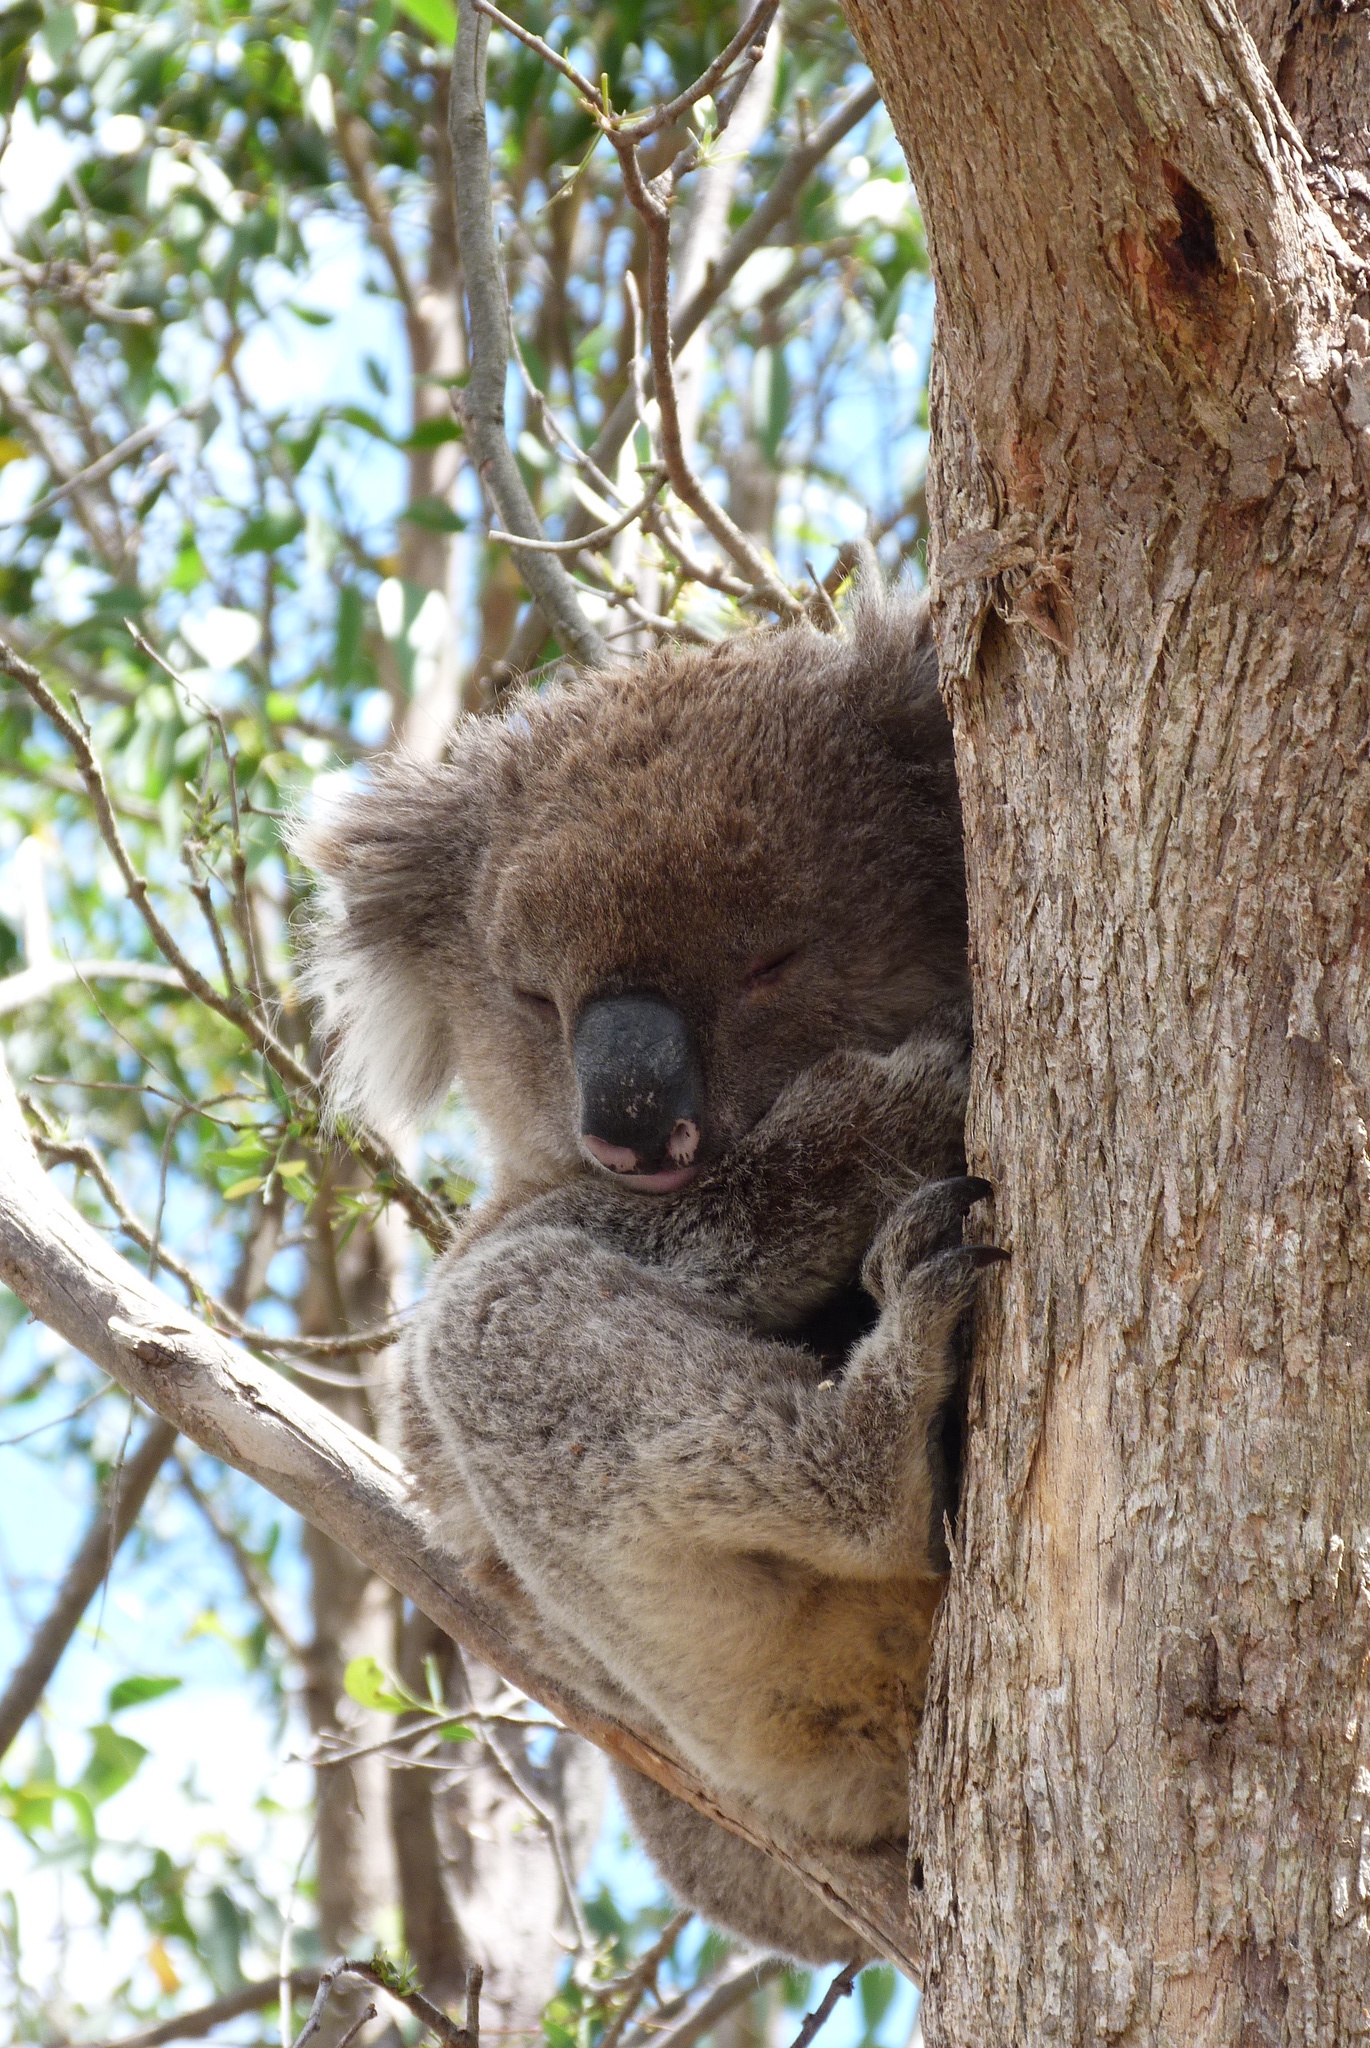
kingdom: Animalia
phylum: Chordata
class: Mammalia
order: Diprotodontia
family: Phascolarctidae
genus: Phascolarctos
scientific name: Phascolarctos cinereus
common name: Koala
